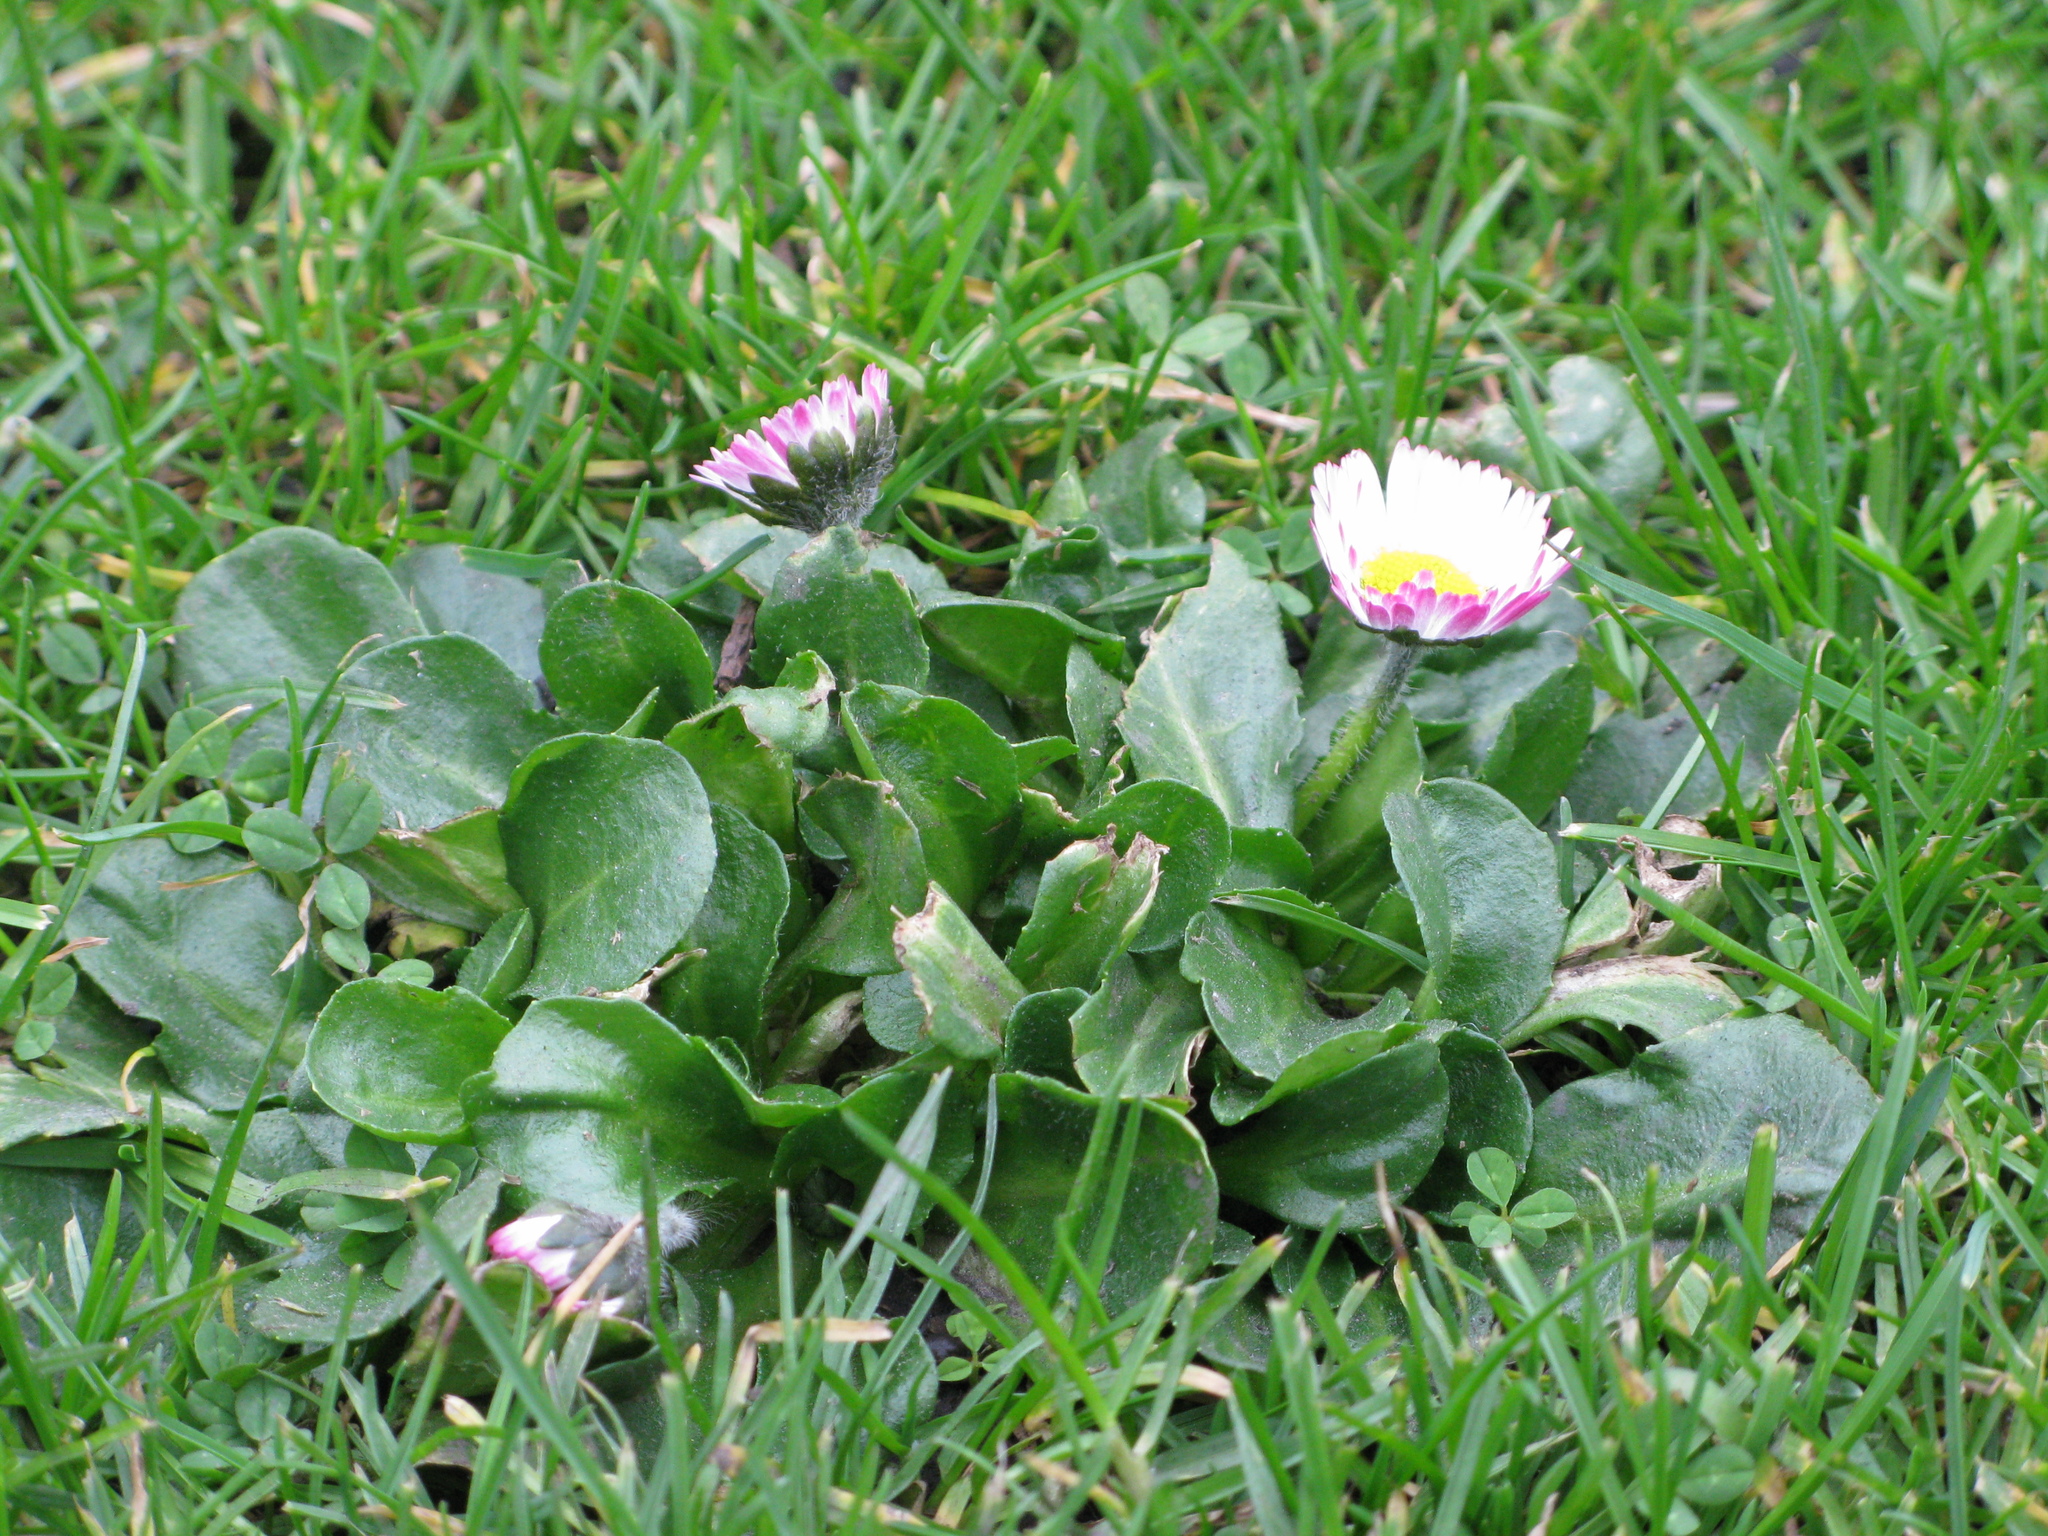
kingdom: Plantae
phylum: Tracheophyta
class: Magnoliopsida
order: Asterales
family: Asteraceae
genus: Bellis
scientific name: Bellis perennis
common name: Lawndaisy
